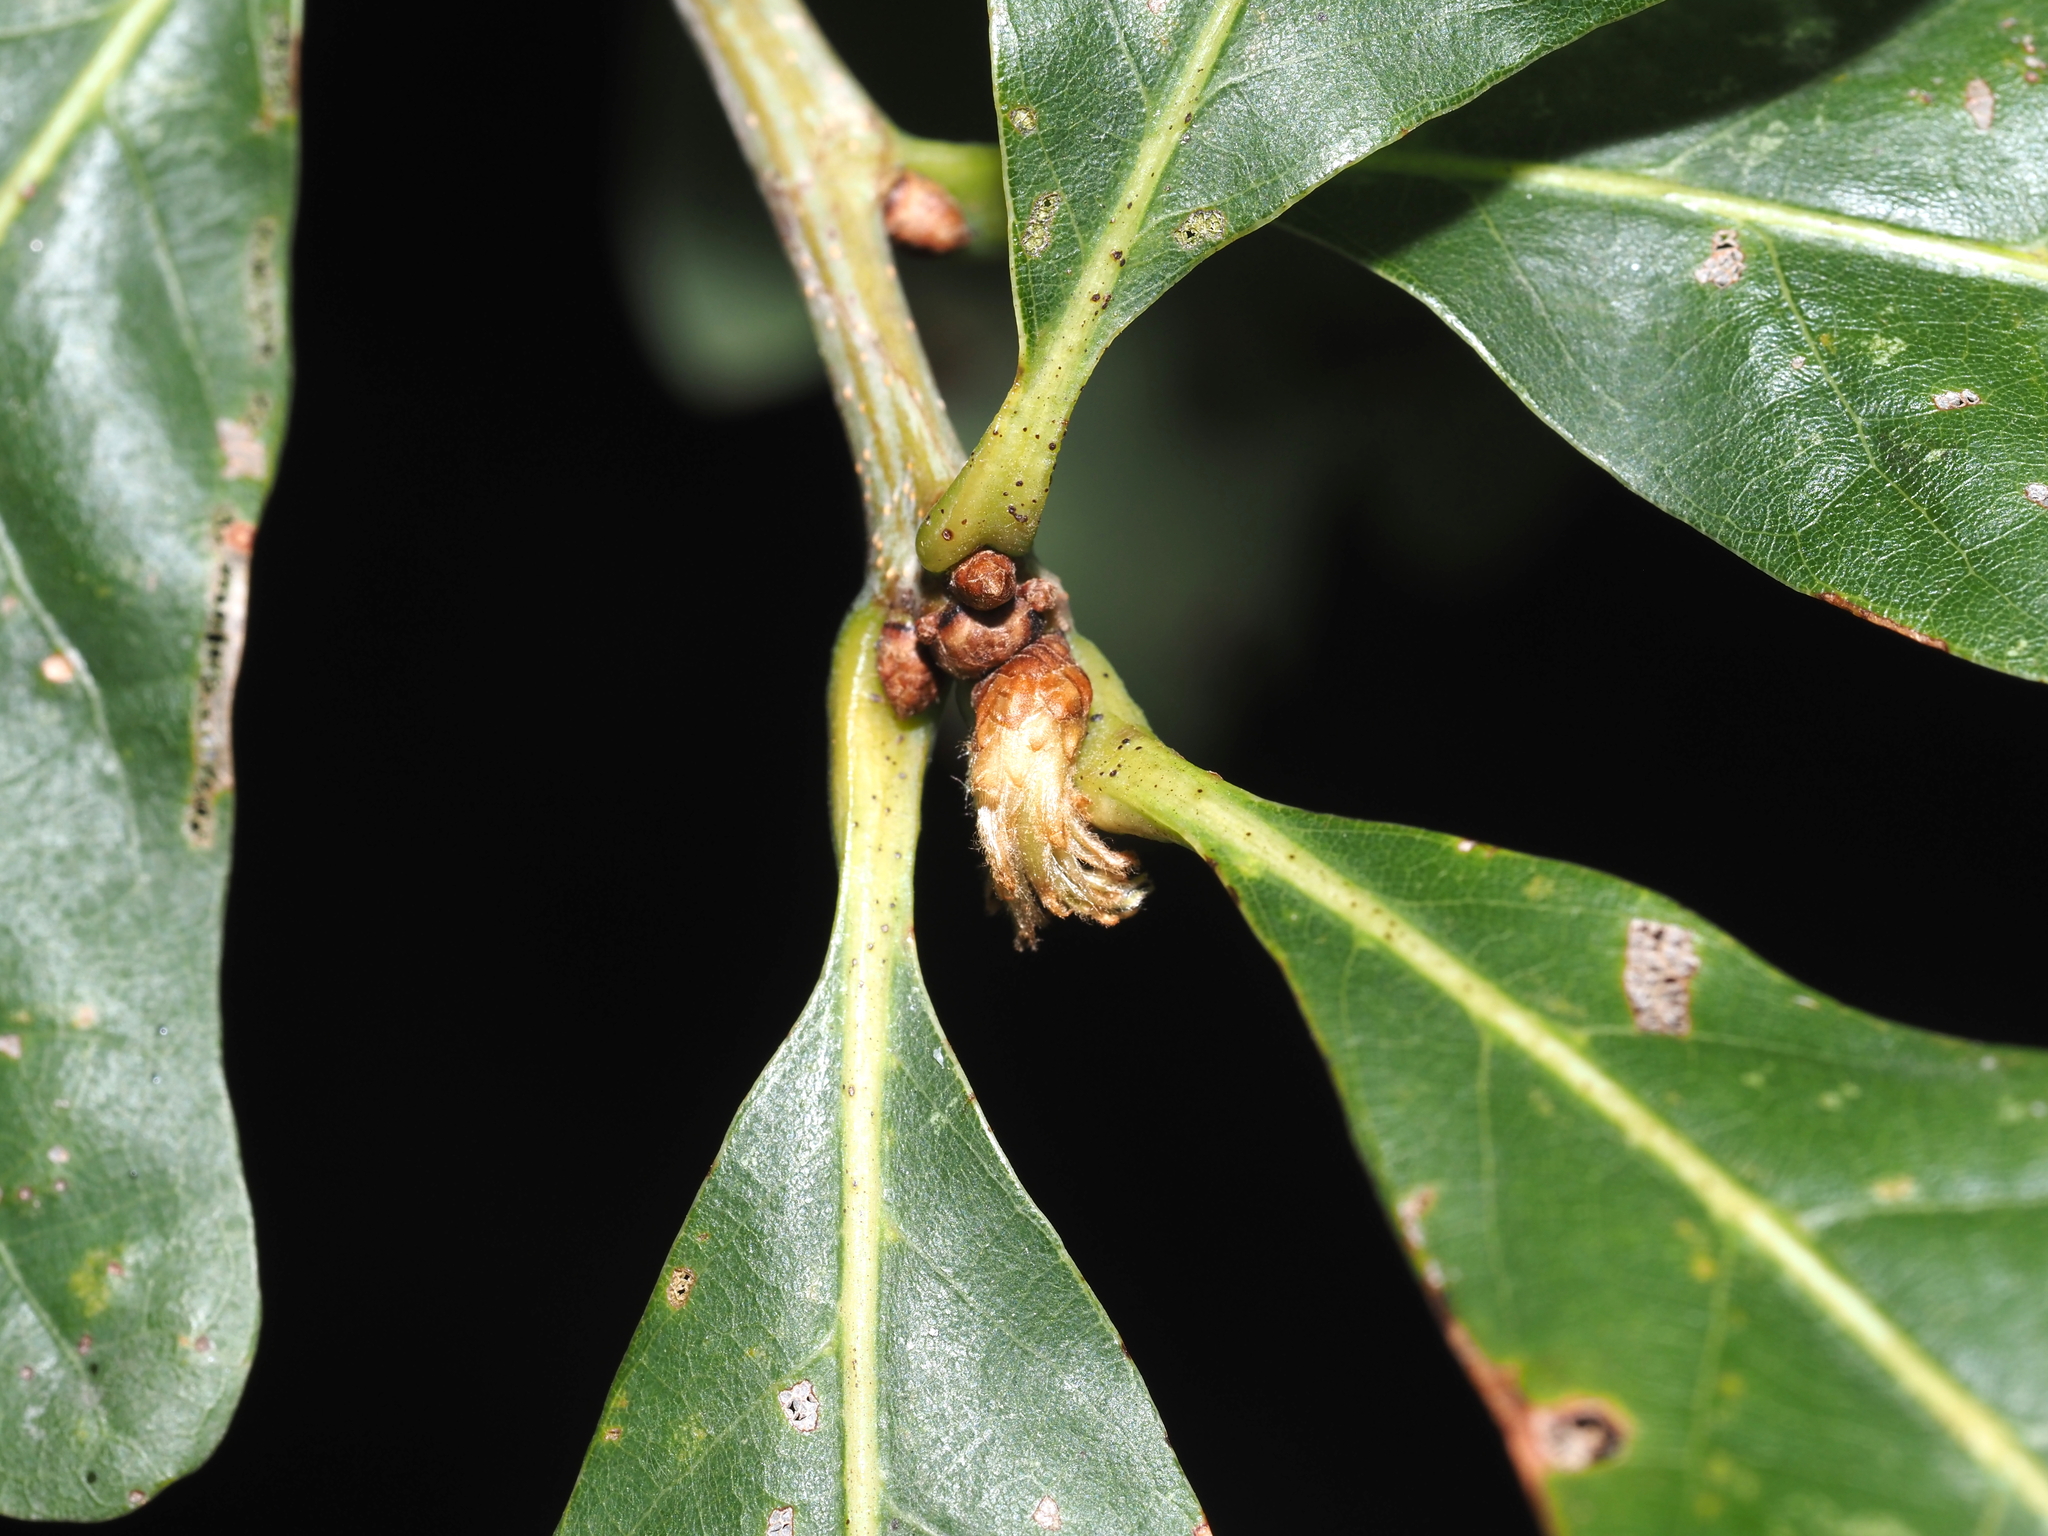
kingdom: Animalia
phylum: Arthropoda
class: Insecta
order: Hymenoptera
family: Cynipidae
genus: Andricus
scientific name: Andricus
